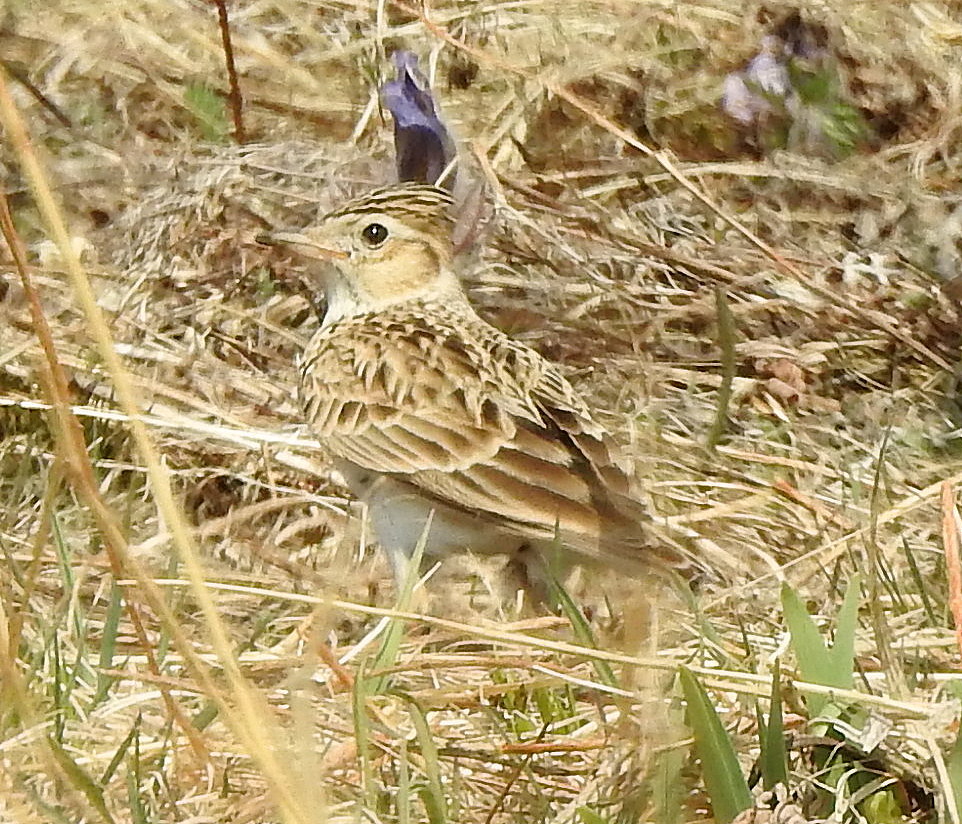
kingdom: Animalia
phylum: Chordata
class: Aves
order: Passeriformes
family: Alaudidae
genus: Alauda
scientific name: Alauda arvensis
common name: Eurasian skylark
